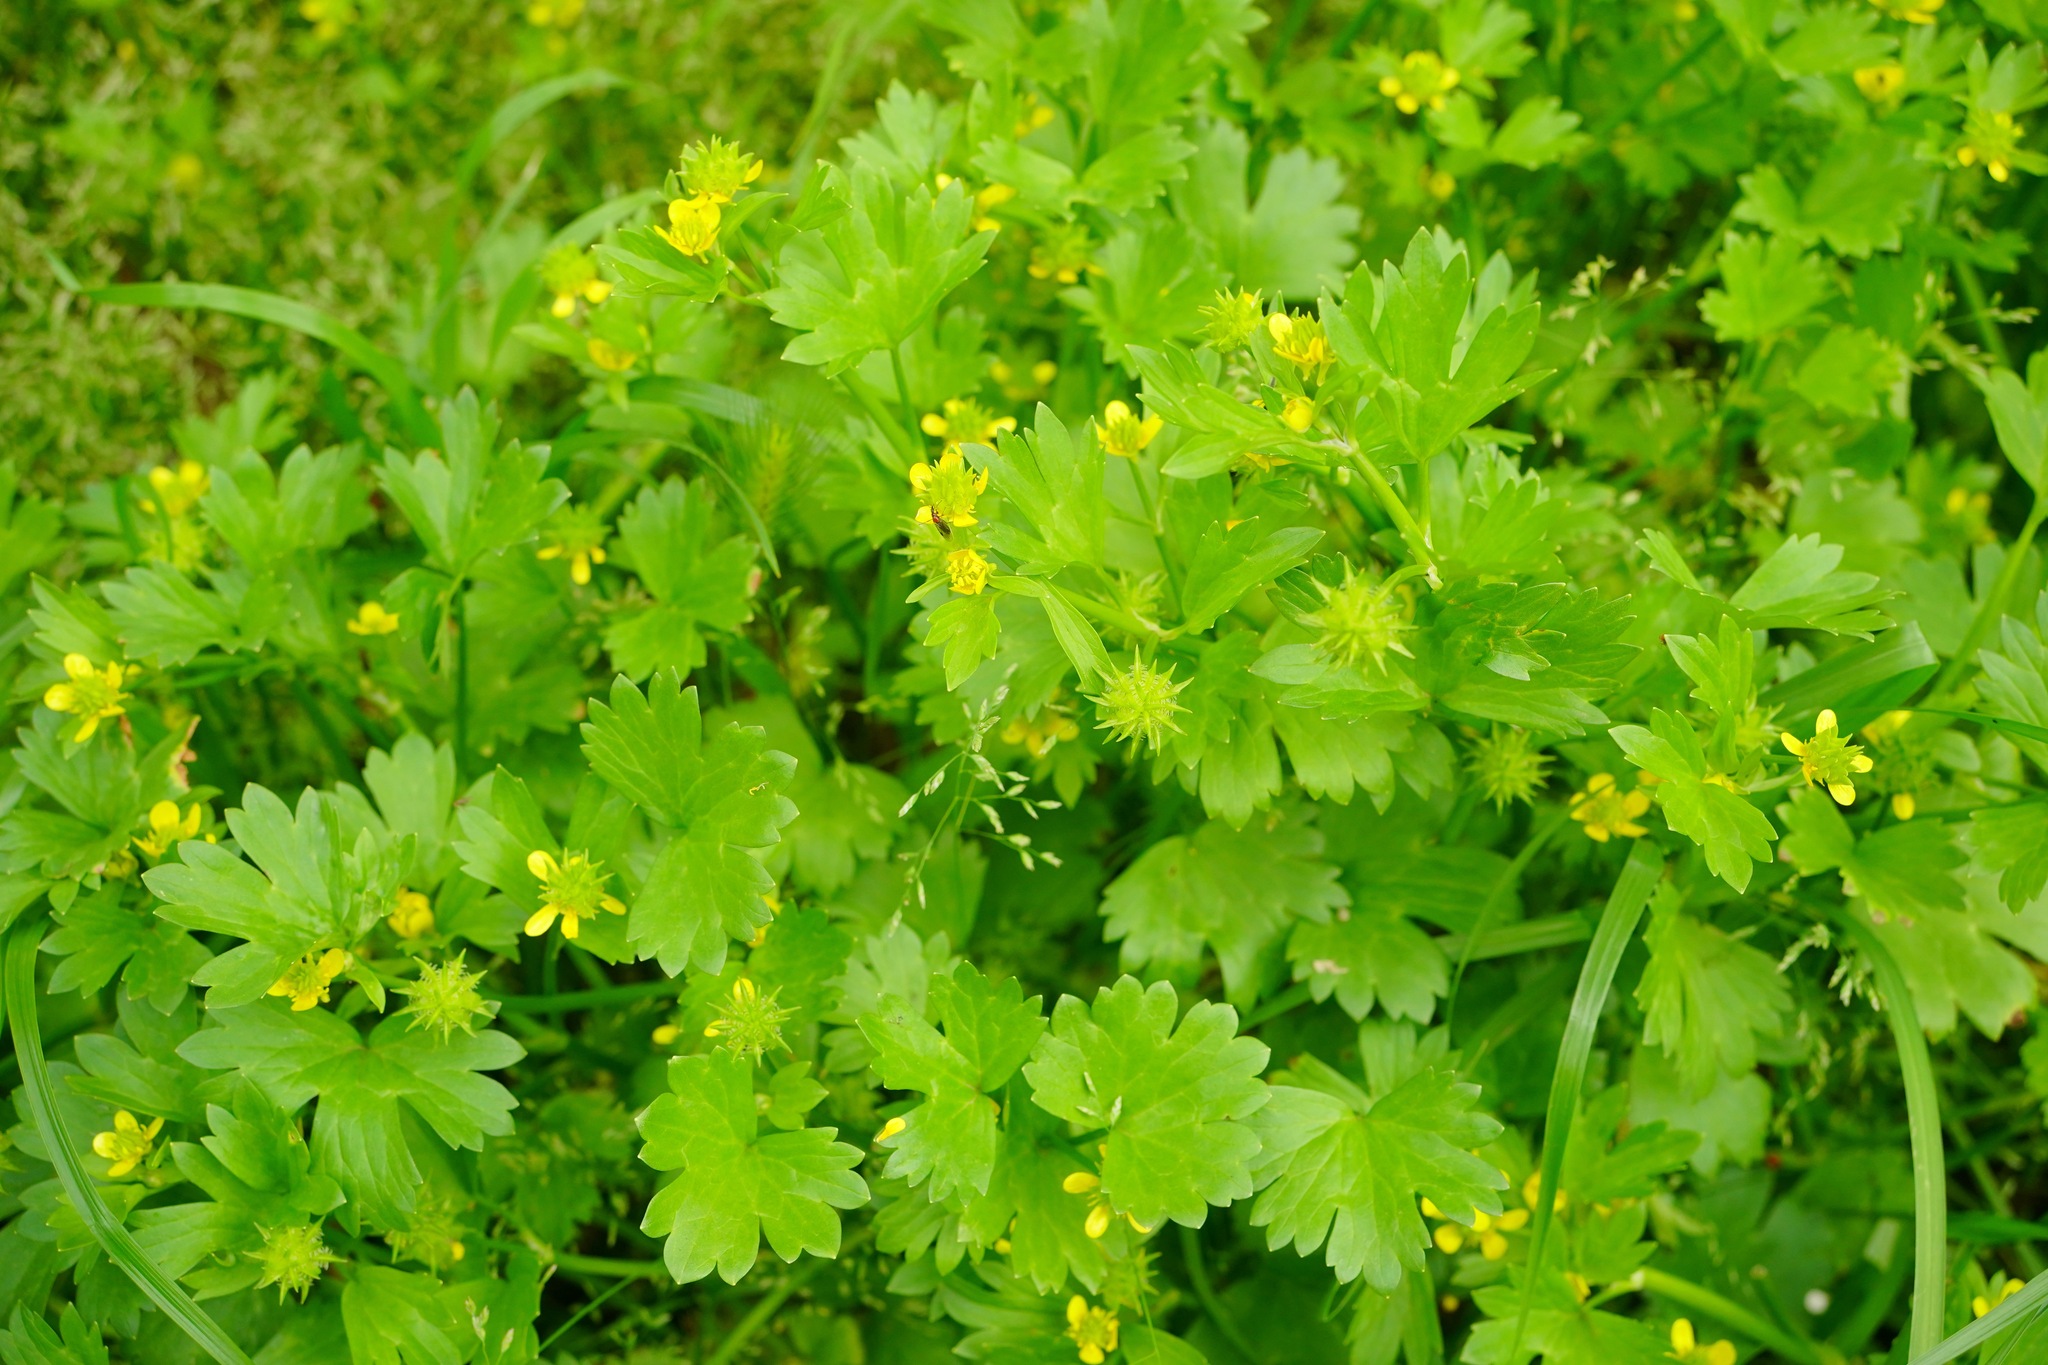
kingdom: Plantae
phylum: Tracheophyta
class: Magnoliopsida
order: Ranunculales
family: Ranunculaceae
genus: Ranunculus
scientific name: Ranunculus muricatus
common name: Rough-fruited buttercup
